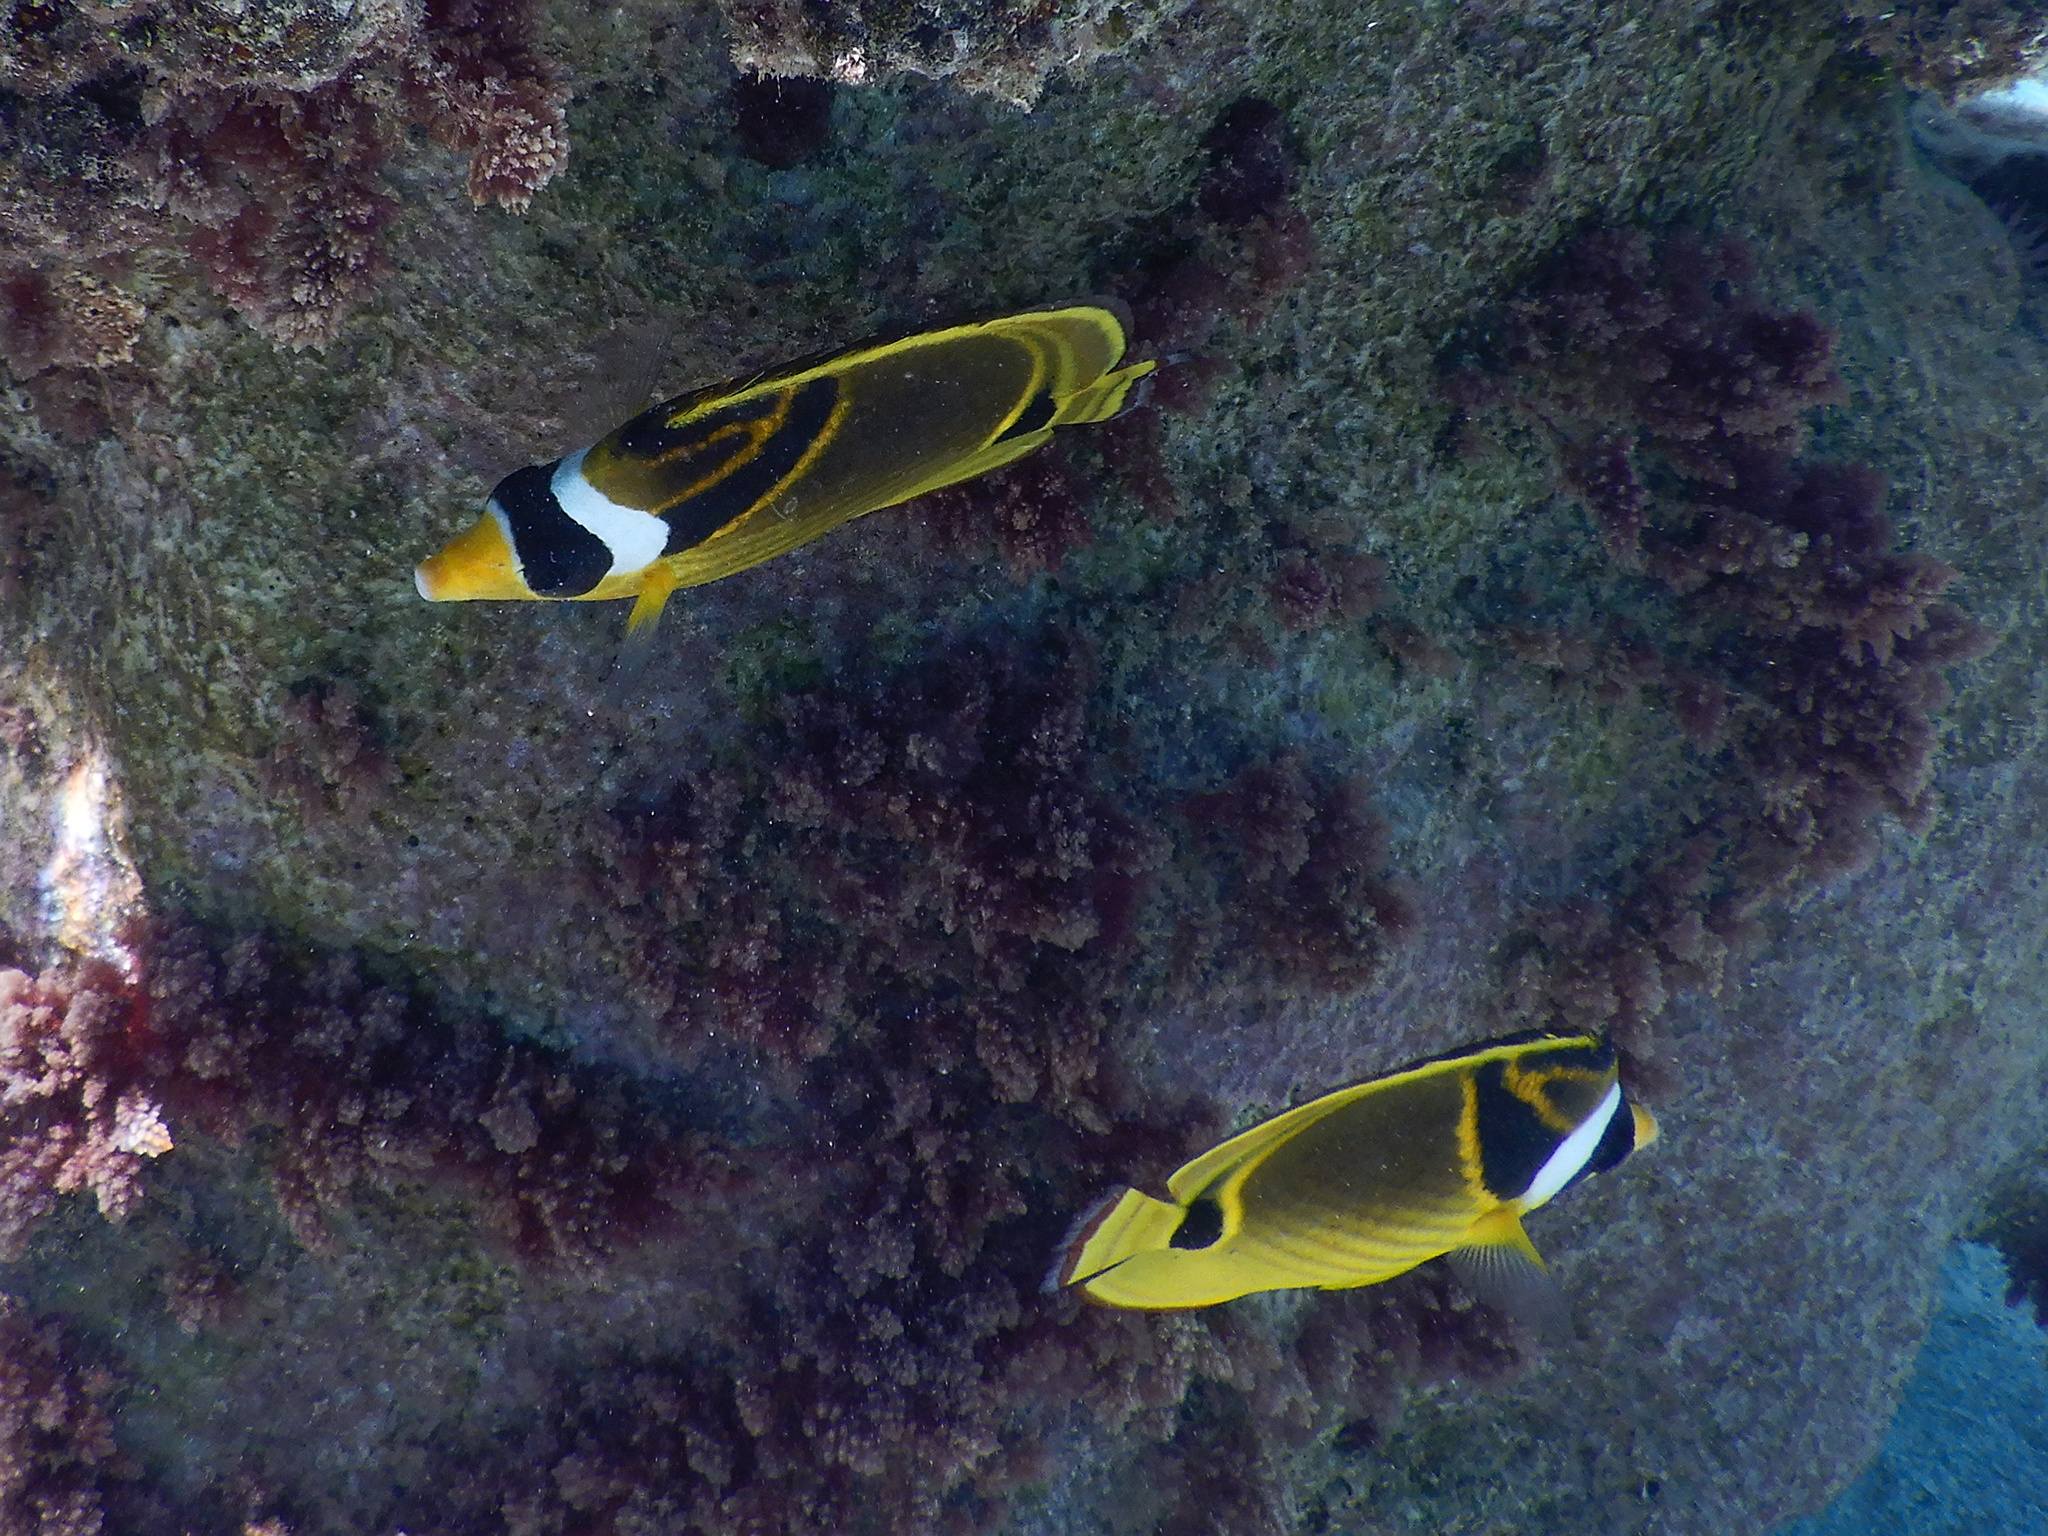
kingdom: Animalia
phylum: Chordata
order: Perciformes
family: Chaetodontidae
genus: Chaetodon
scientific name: Chaetodon lunula
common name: Raccoon butterflyfish
